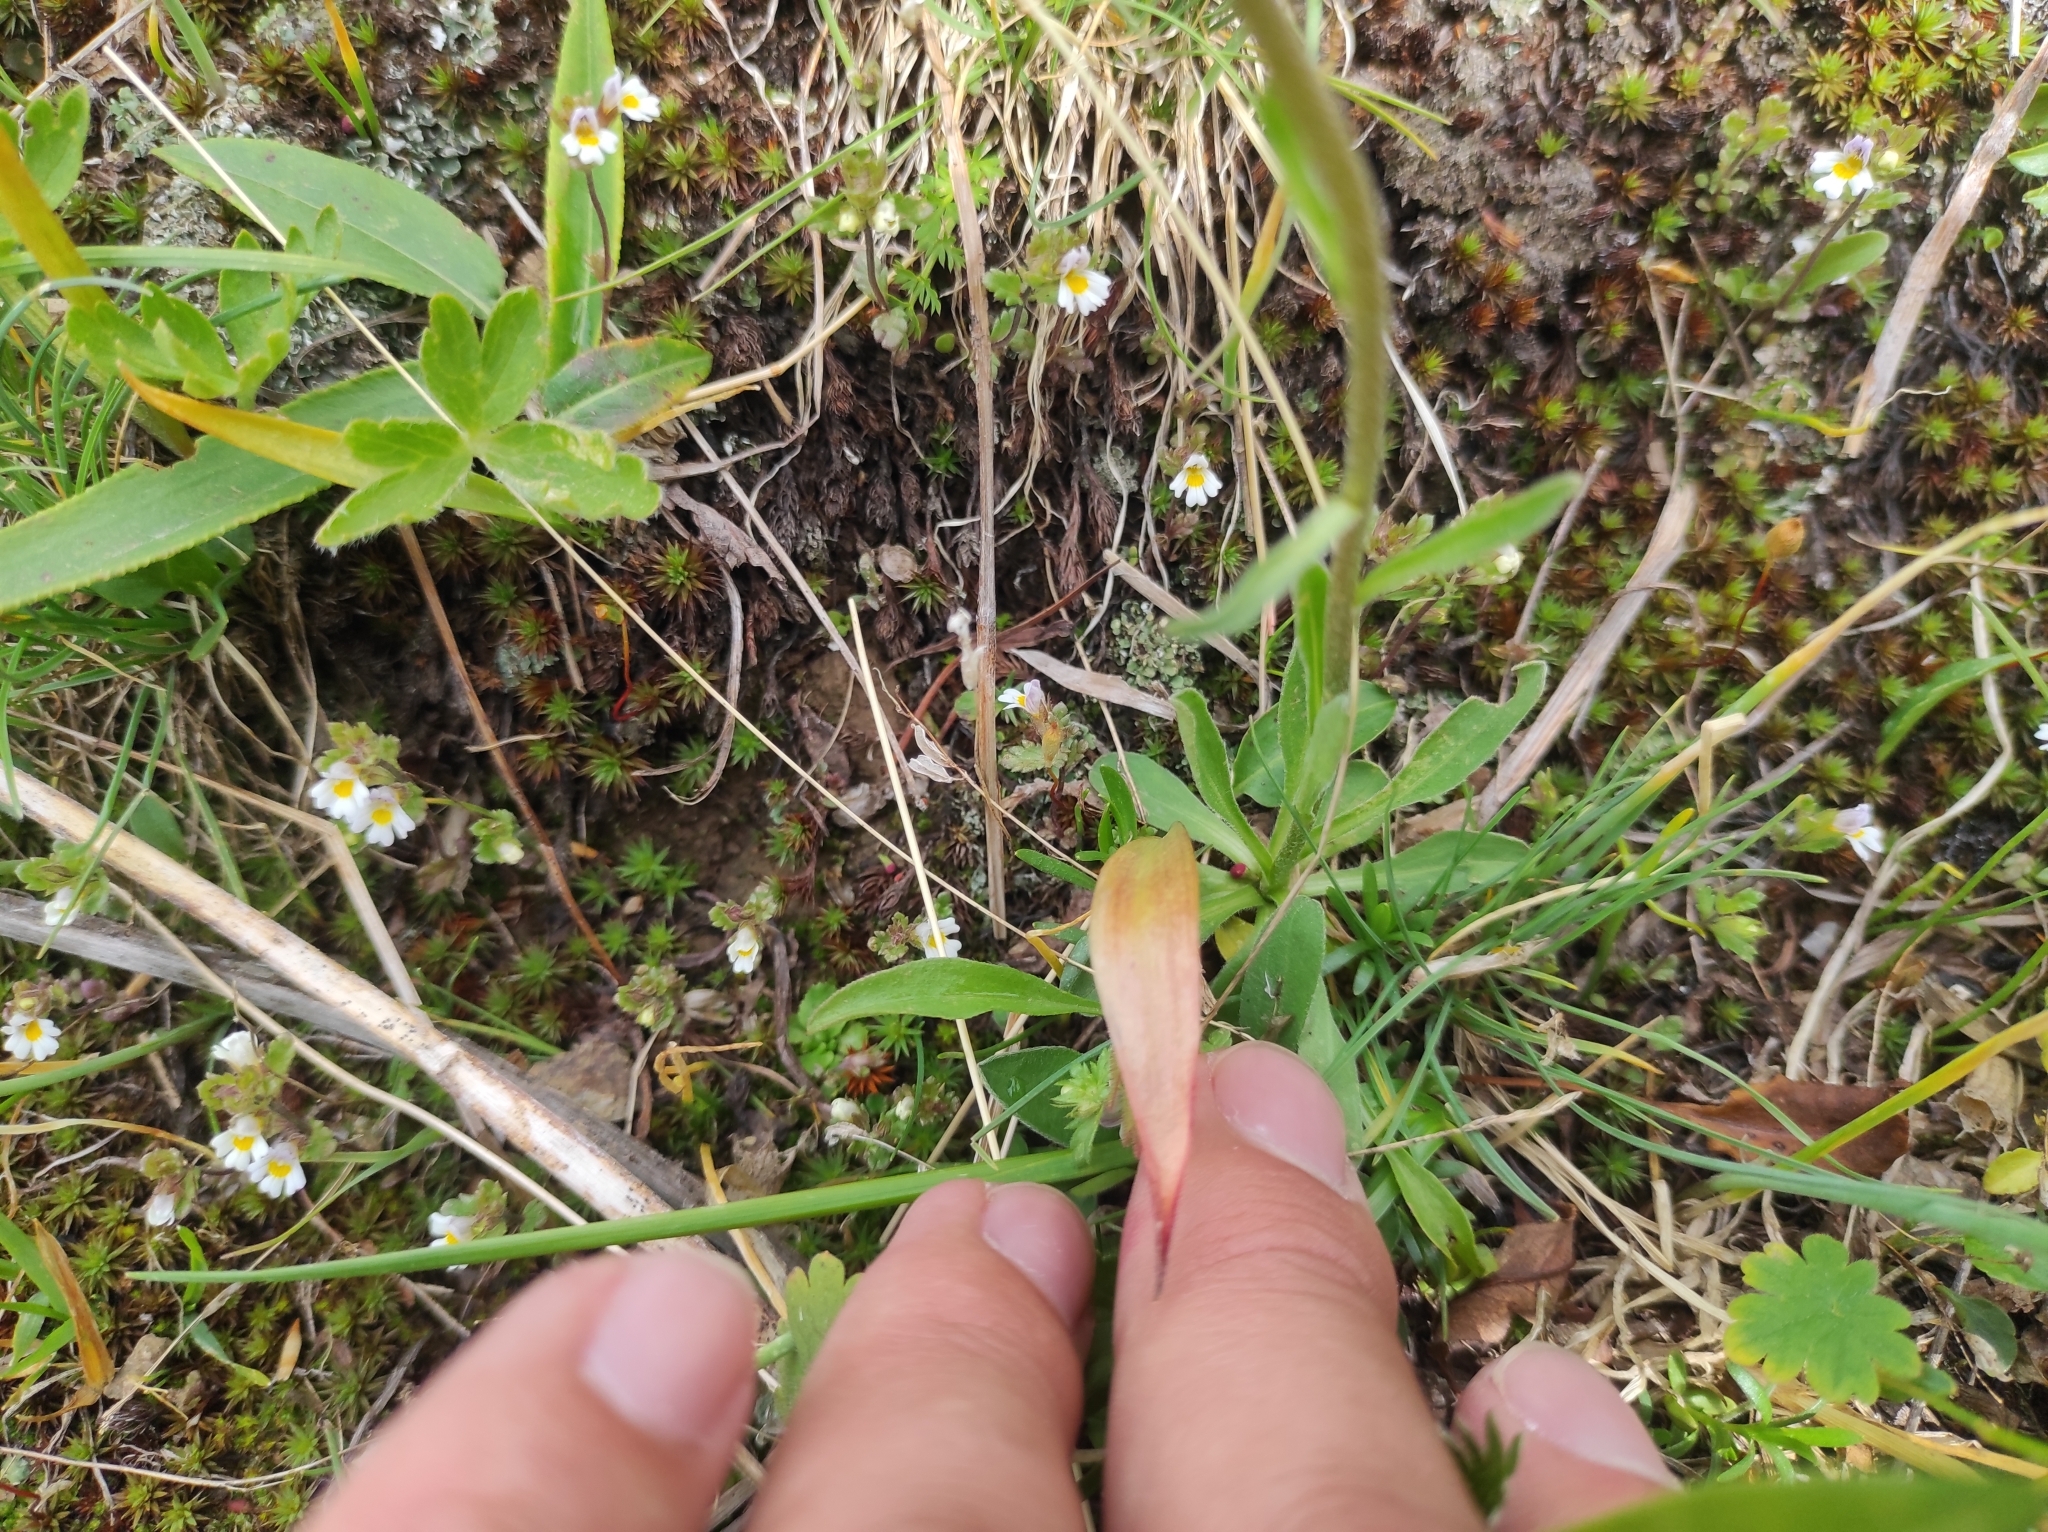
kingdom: Plantae
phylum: Tracheophyta
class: Magnoliopsida
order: Asterales
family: Asteraceae
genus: Aster
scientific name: Aster vvedenskyi
